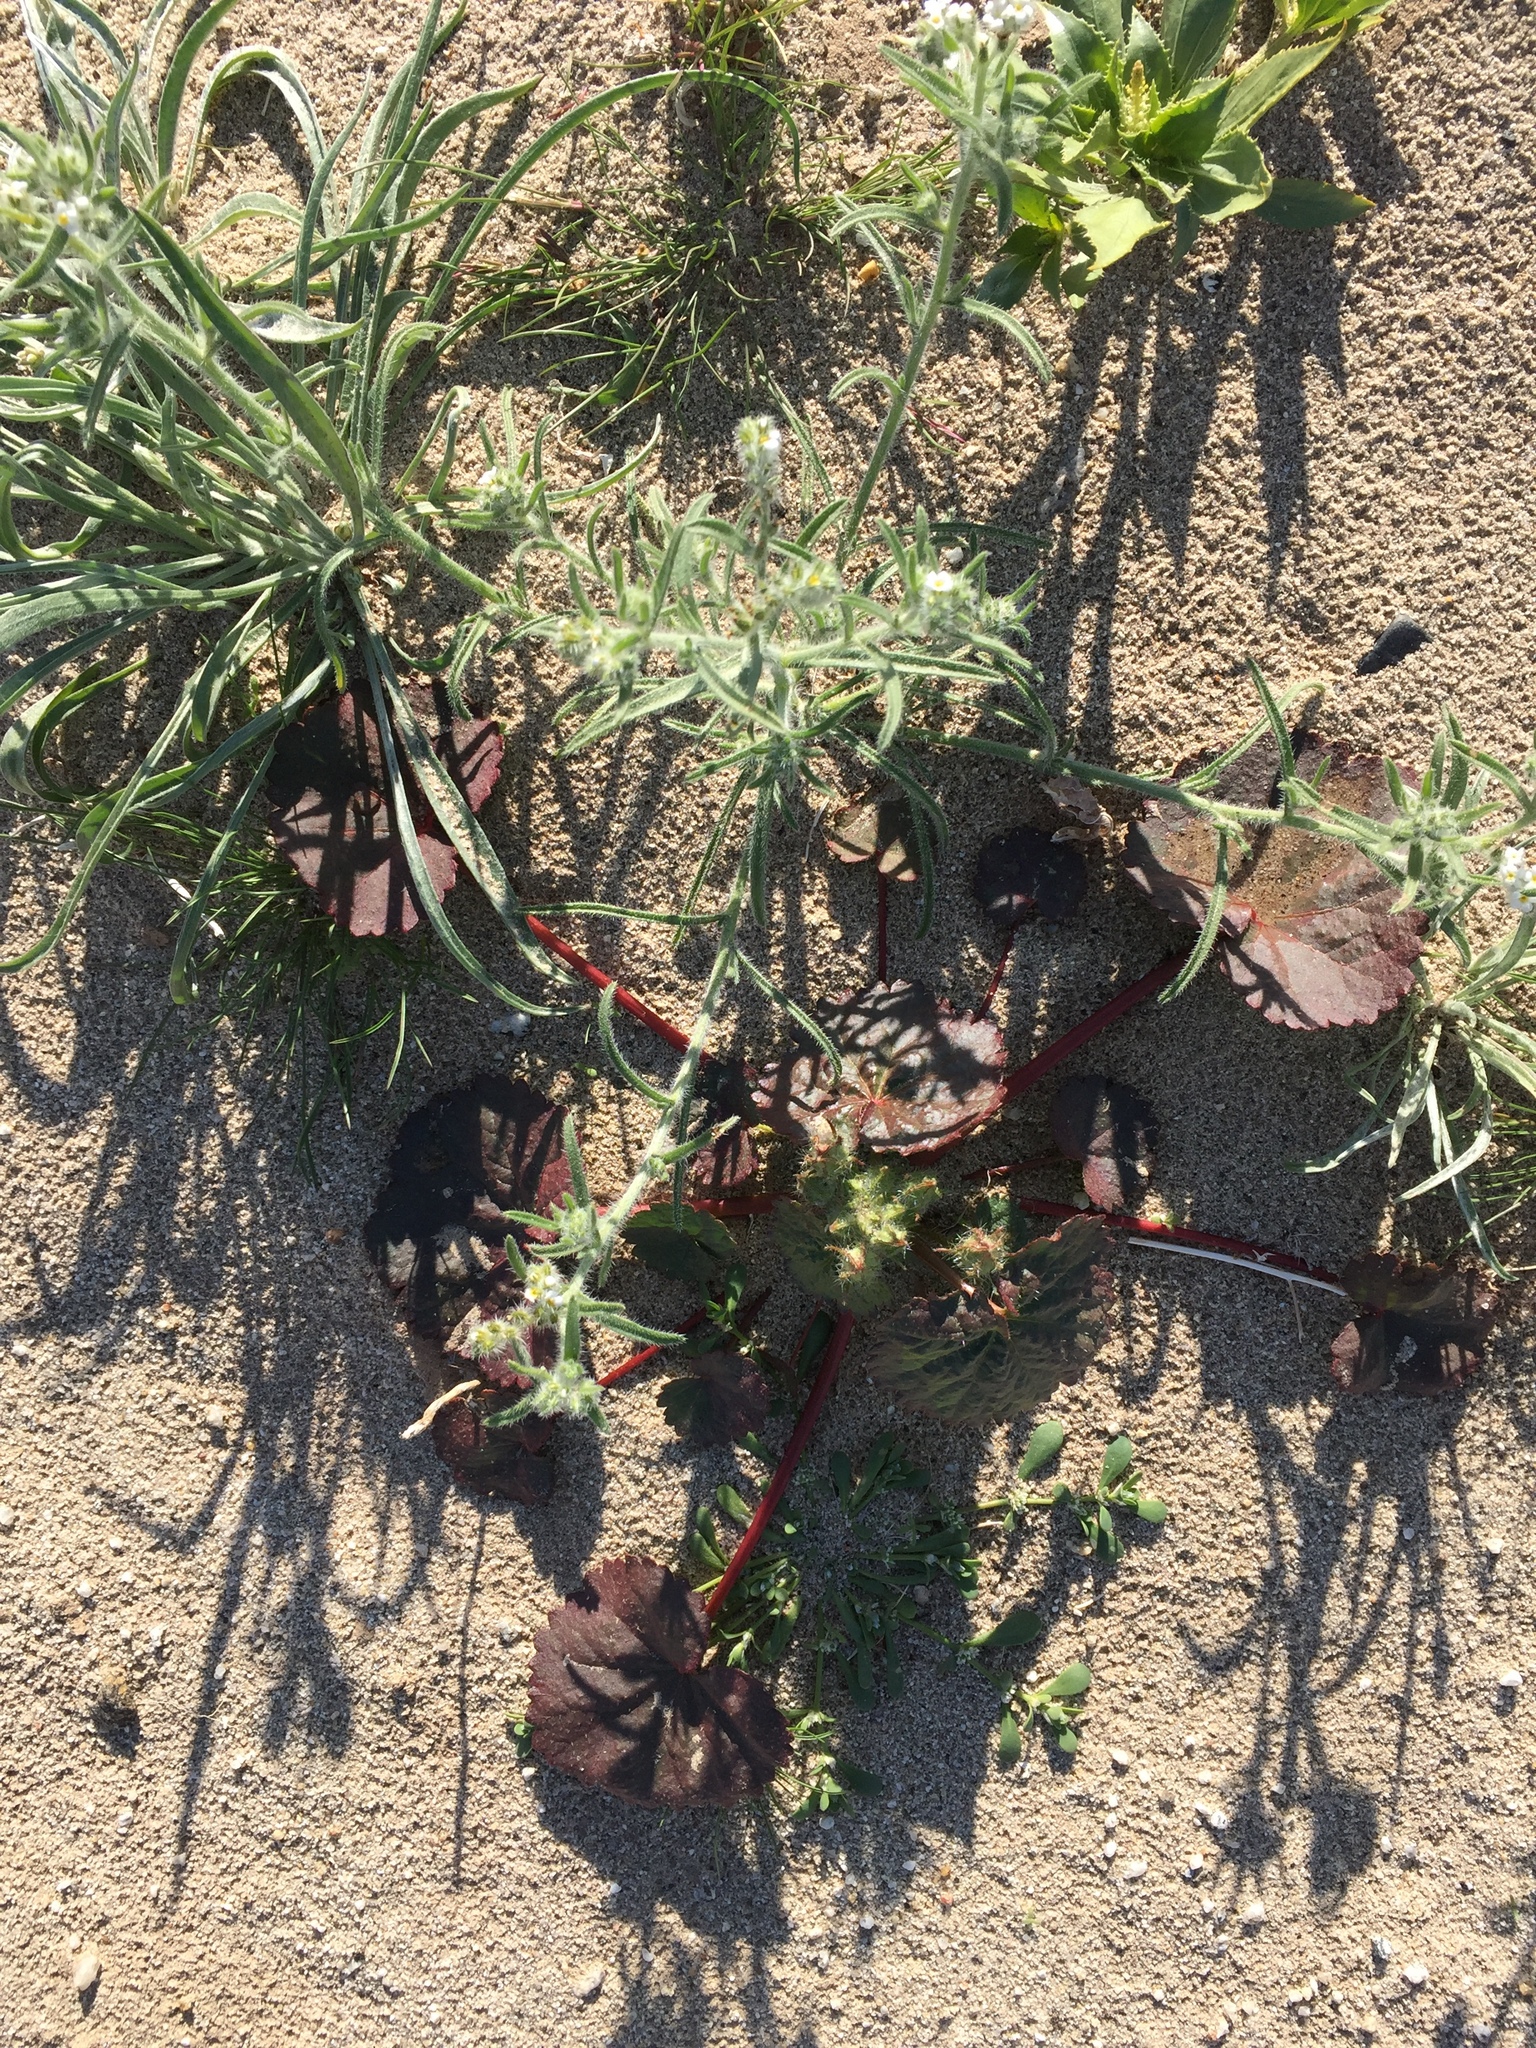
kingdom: Plantae
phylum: Tracheophyta
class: Magnoliopsida
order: Malvales
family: Malvaceae
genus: Eremalche
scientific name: Eremalche rotundifolia
